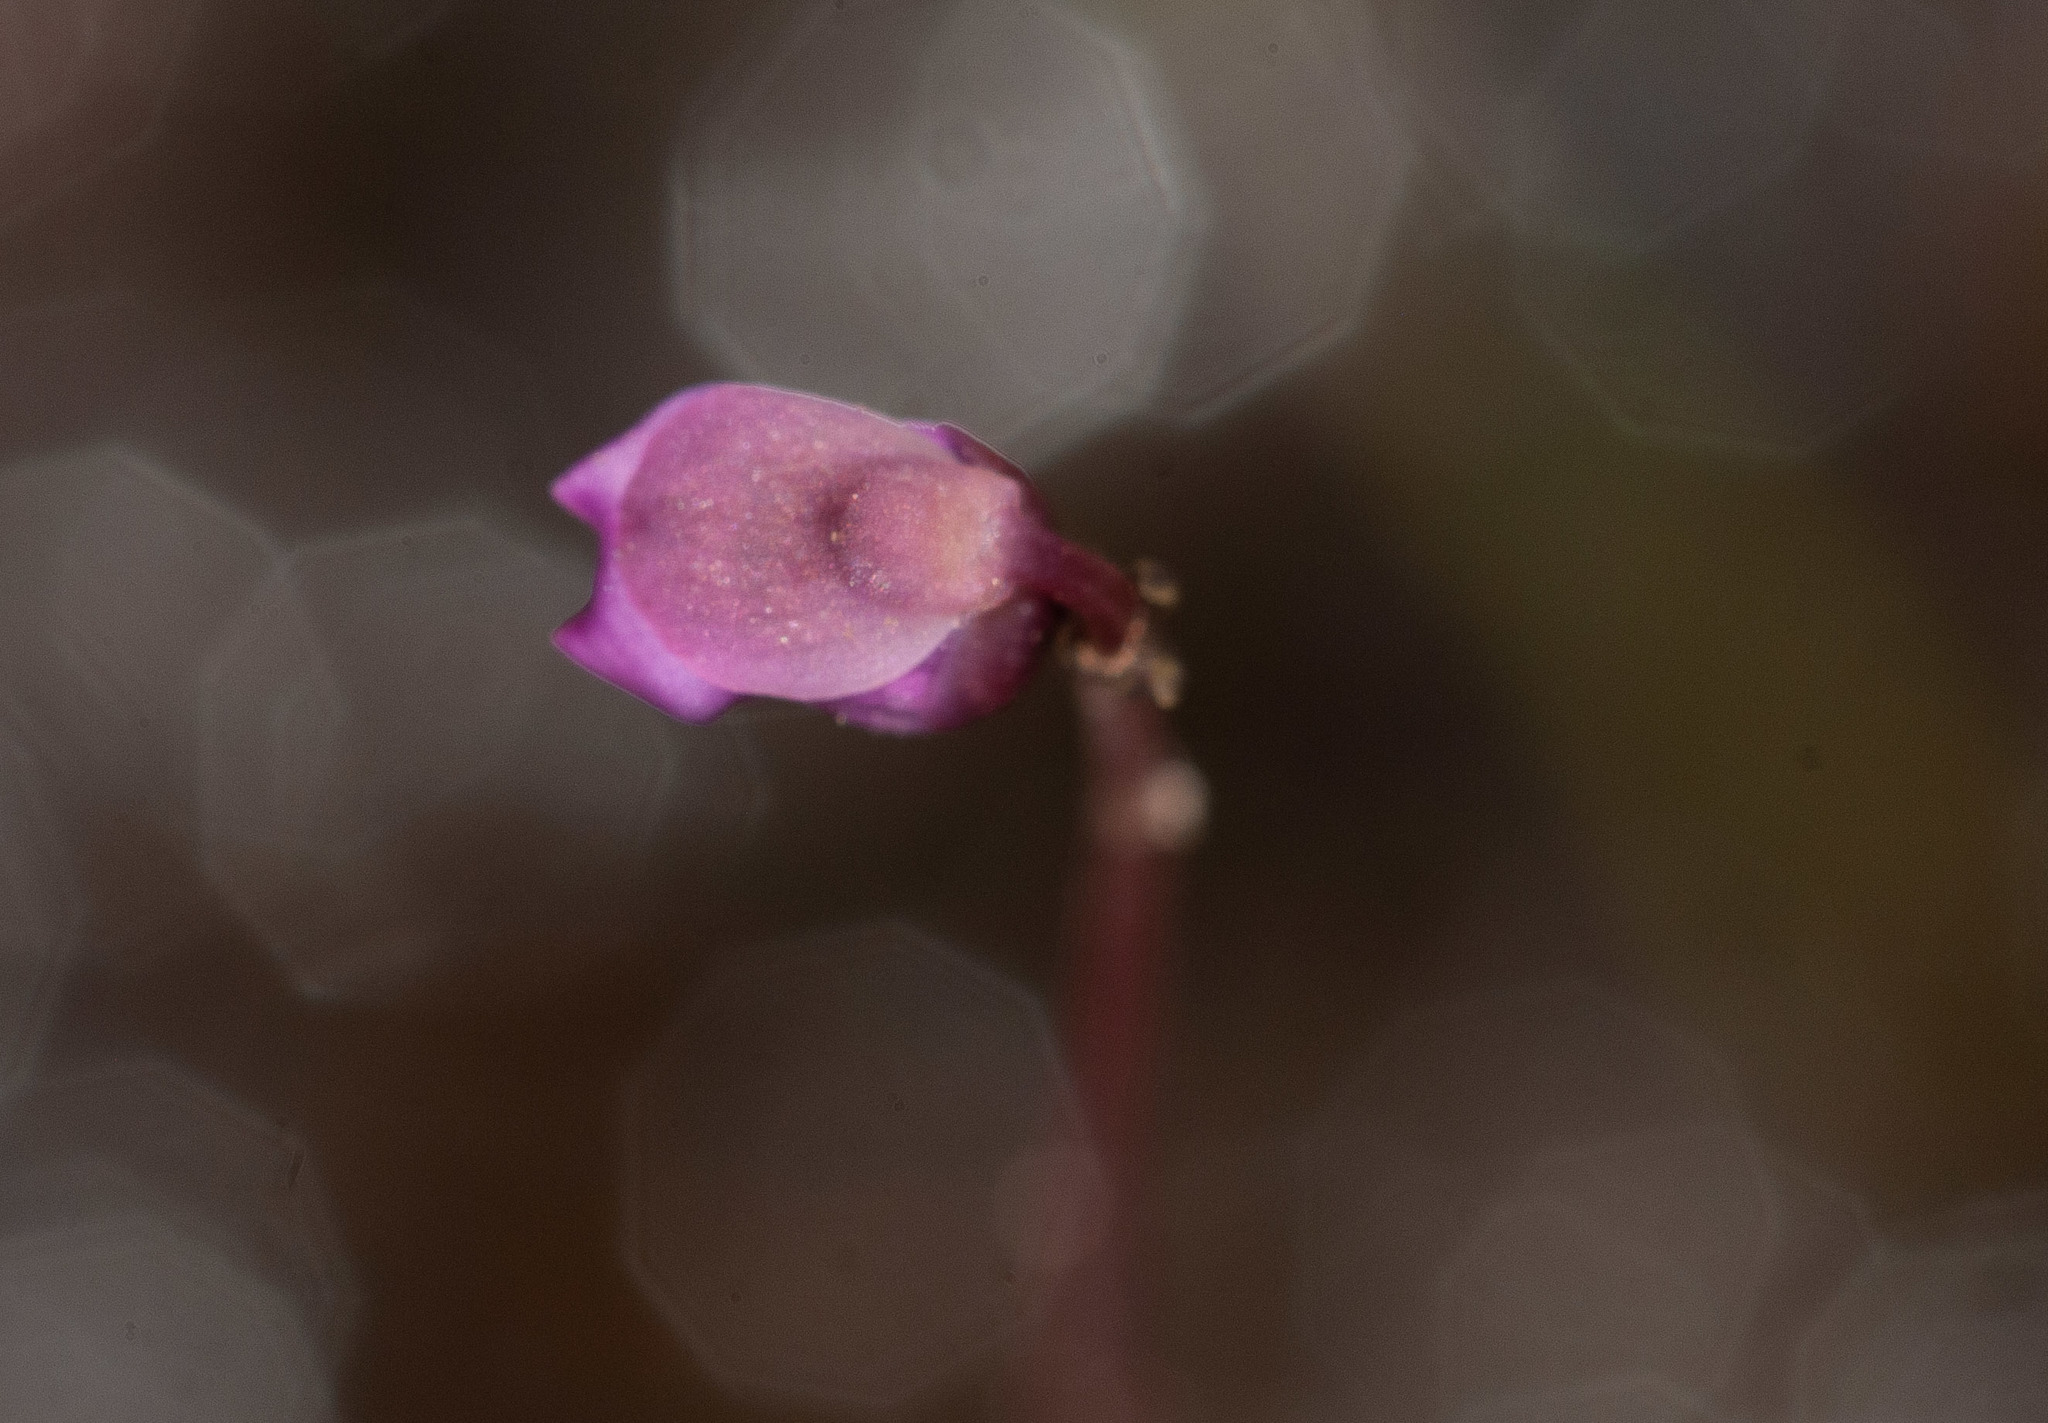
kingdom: Plantae
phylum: Tracheophyta
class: Magnoliopsida
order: Lamiales
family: Lentibulariaceae
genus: Utricularia
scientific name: Utricularia uniflora
